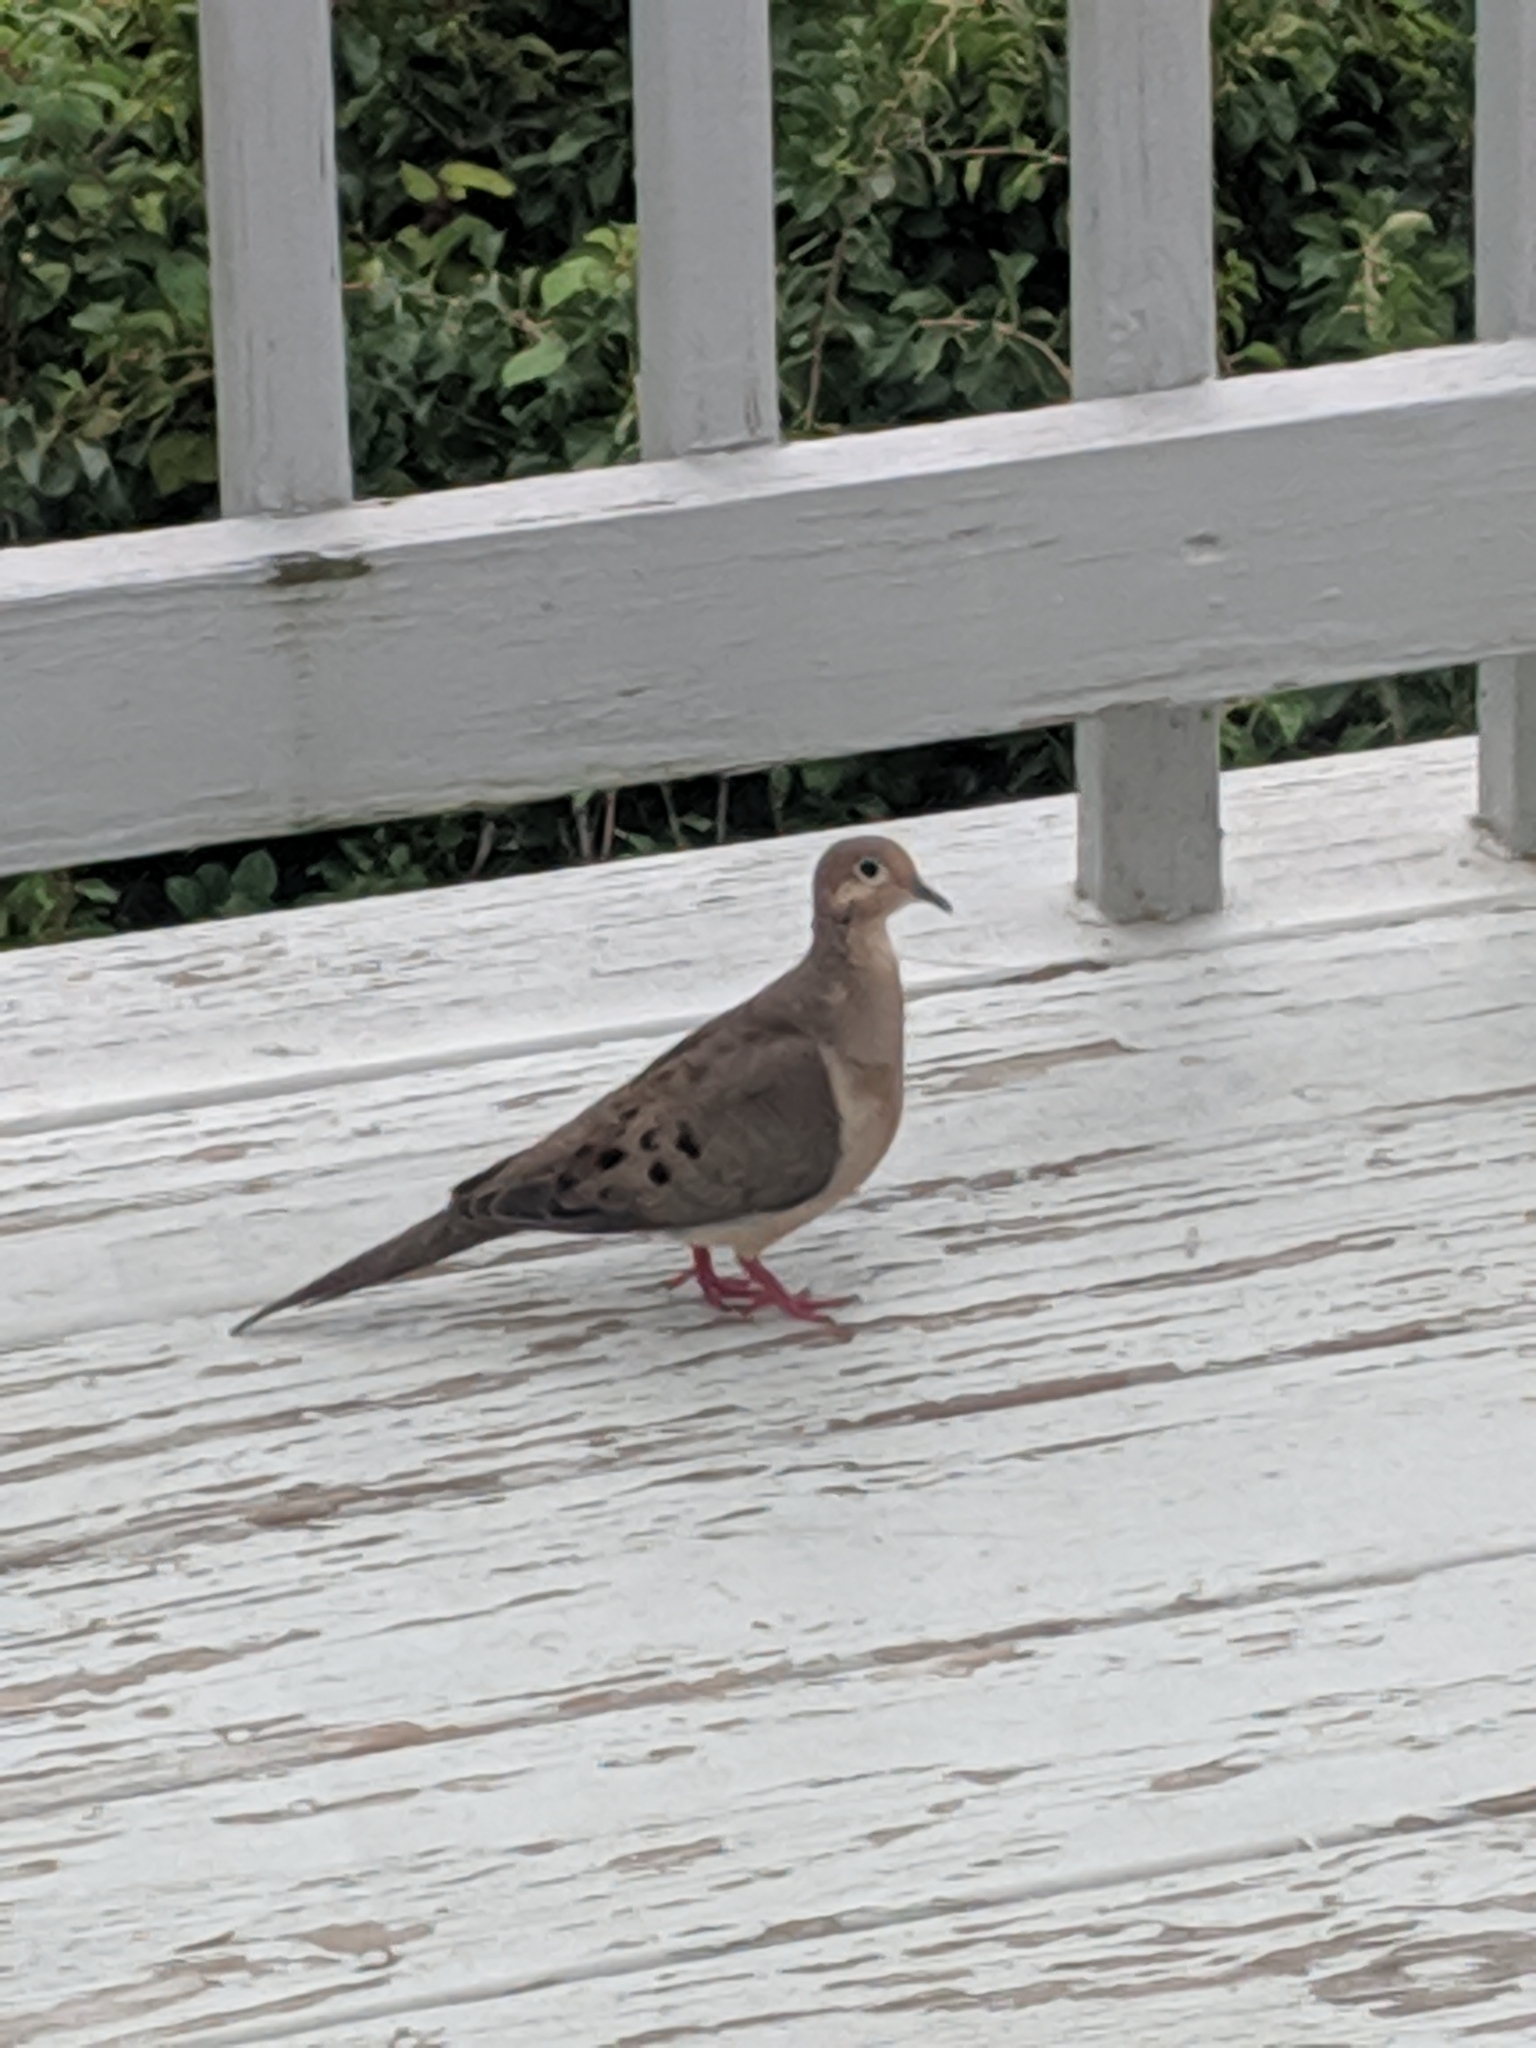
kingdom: Animalia
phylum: Chordata
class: Aves
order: Columbiformes
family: Columbidae
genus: Zenaida
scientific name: Zenaida macroura
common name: Mourning dove
